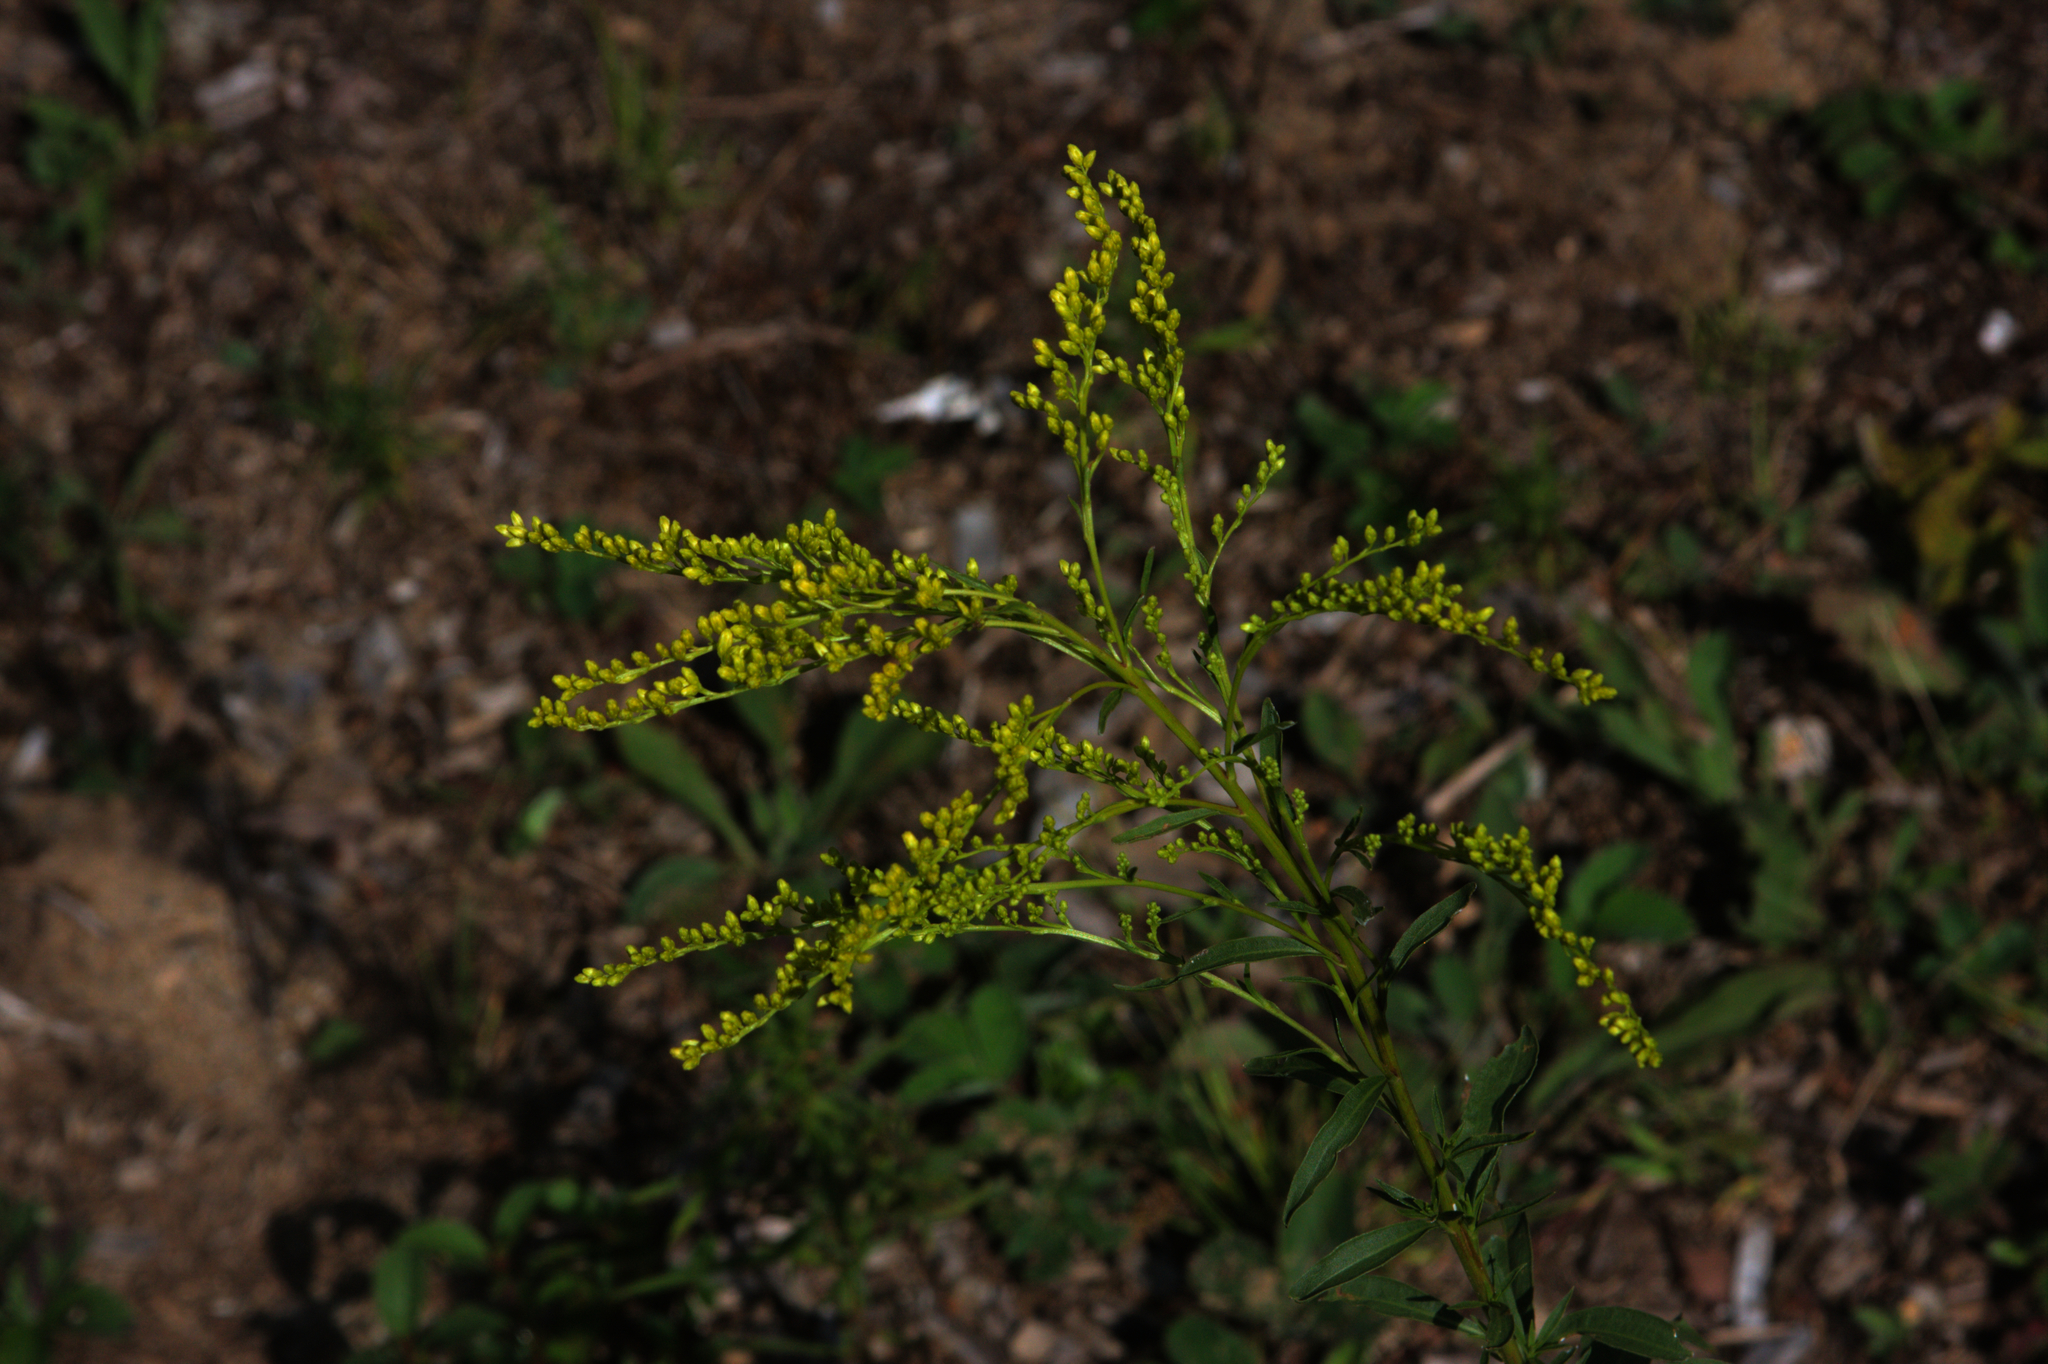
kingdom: Plantae
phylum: Tracheophyta
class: Magnoliopsida
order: Asterales
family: Asteraceae
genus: Solidago
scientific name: Solidago juncea
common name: Early goldenrod
